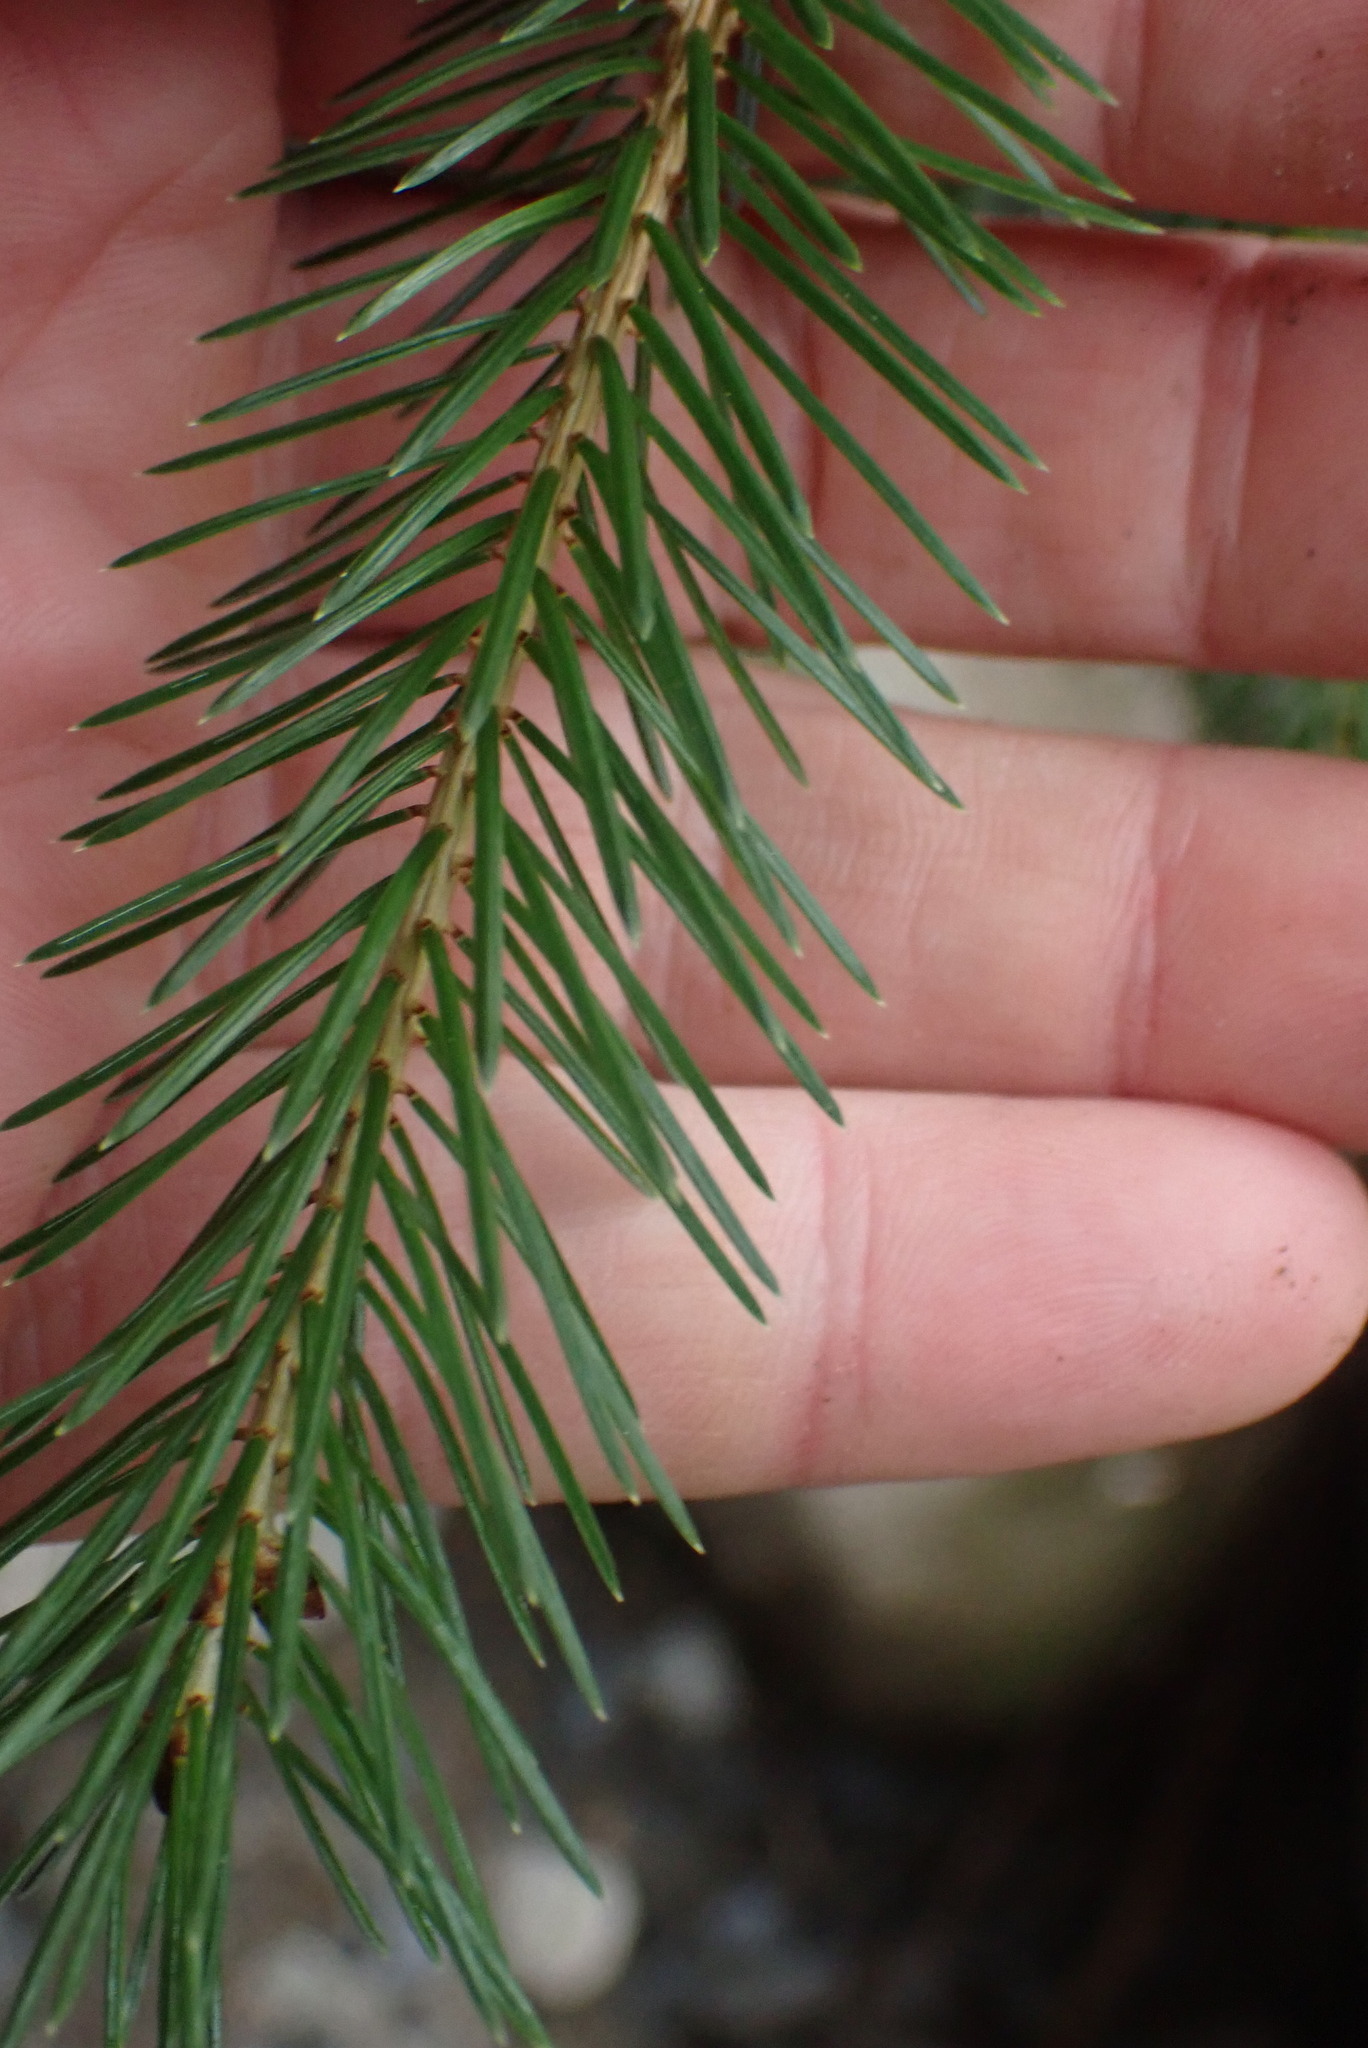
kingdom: Plantae
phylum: Bryophyta
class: Polytrichopsida
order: Polytrichales
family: Polytrichaceae
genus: Polytrichastrum
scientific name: Polytrichastrum alpinum
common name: Alpine haircap
